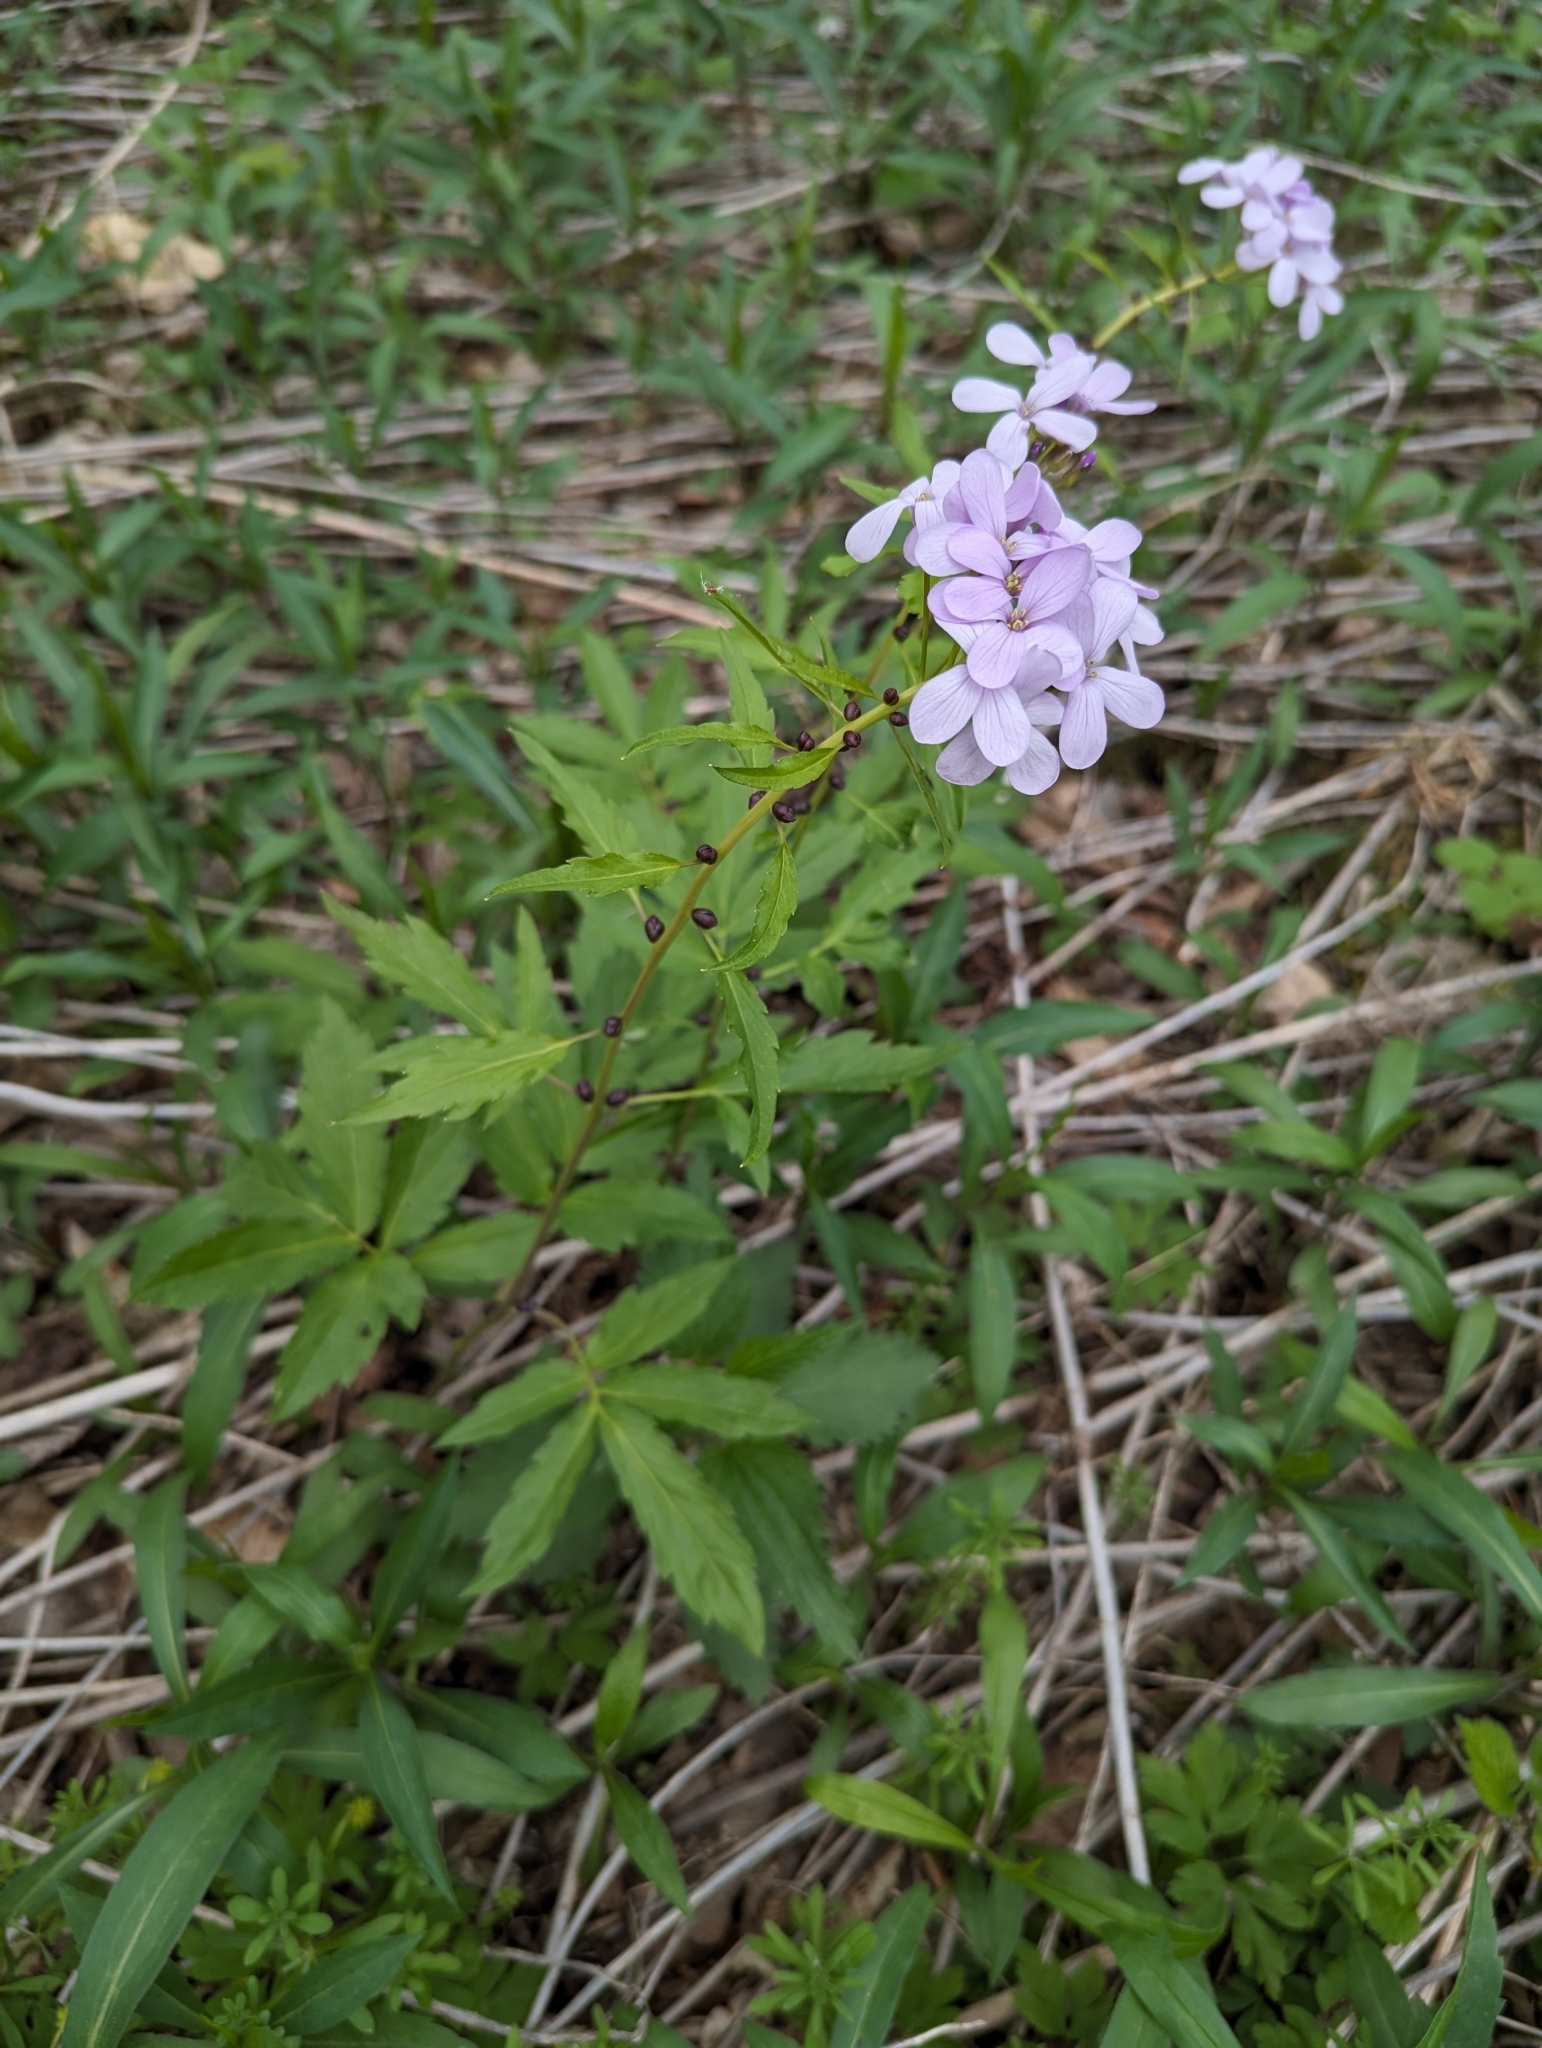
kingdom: Plantae
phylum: Tracheophyta
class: Magnoliopsida
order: Brassicales
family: Brassicaceae
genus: Cardamine
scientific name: Cardamine bulbifera
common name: Coralroot bittercress
